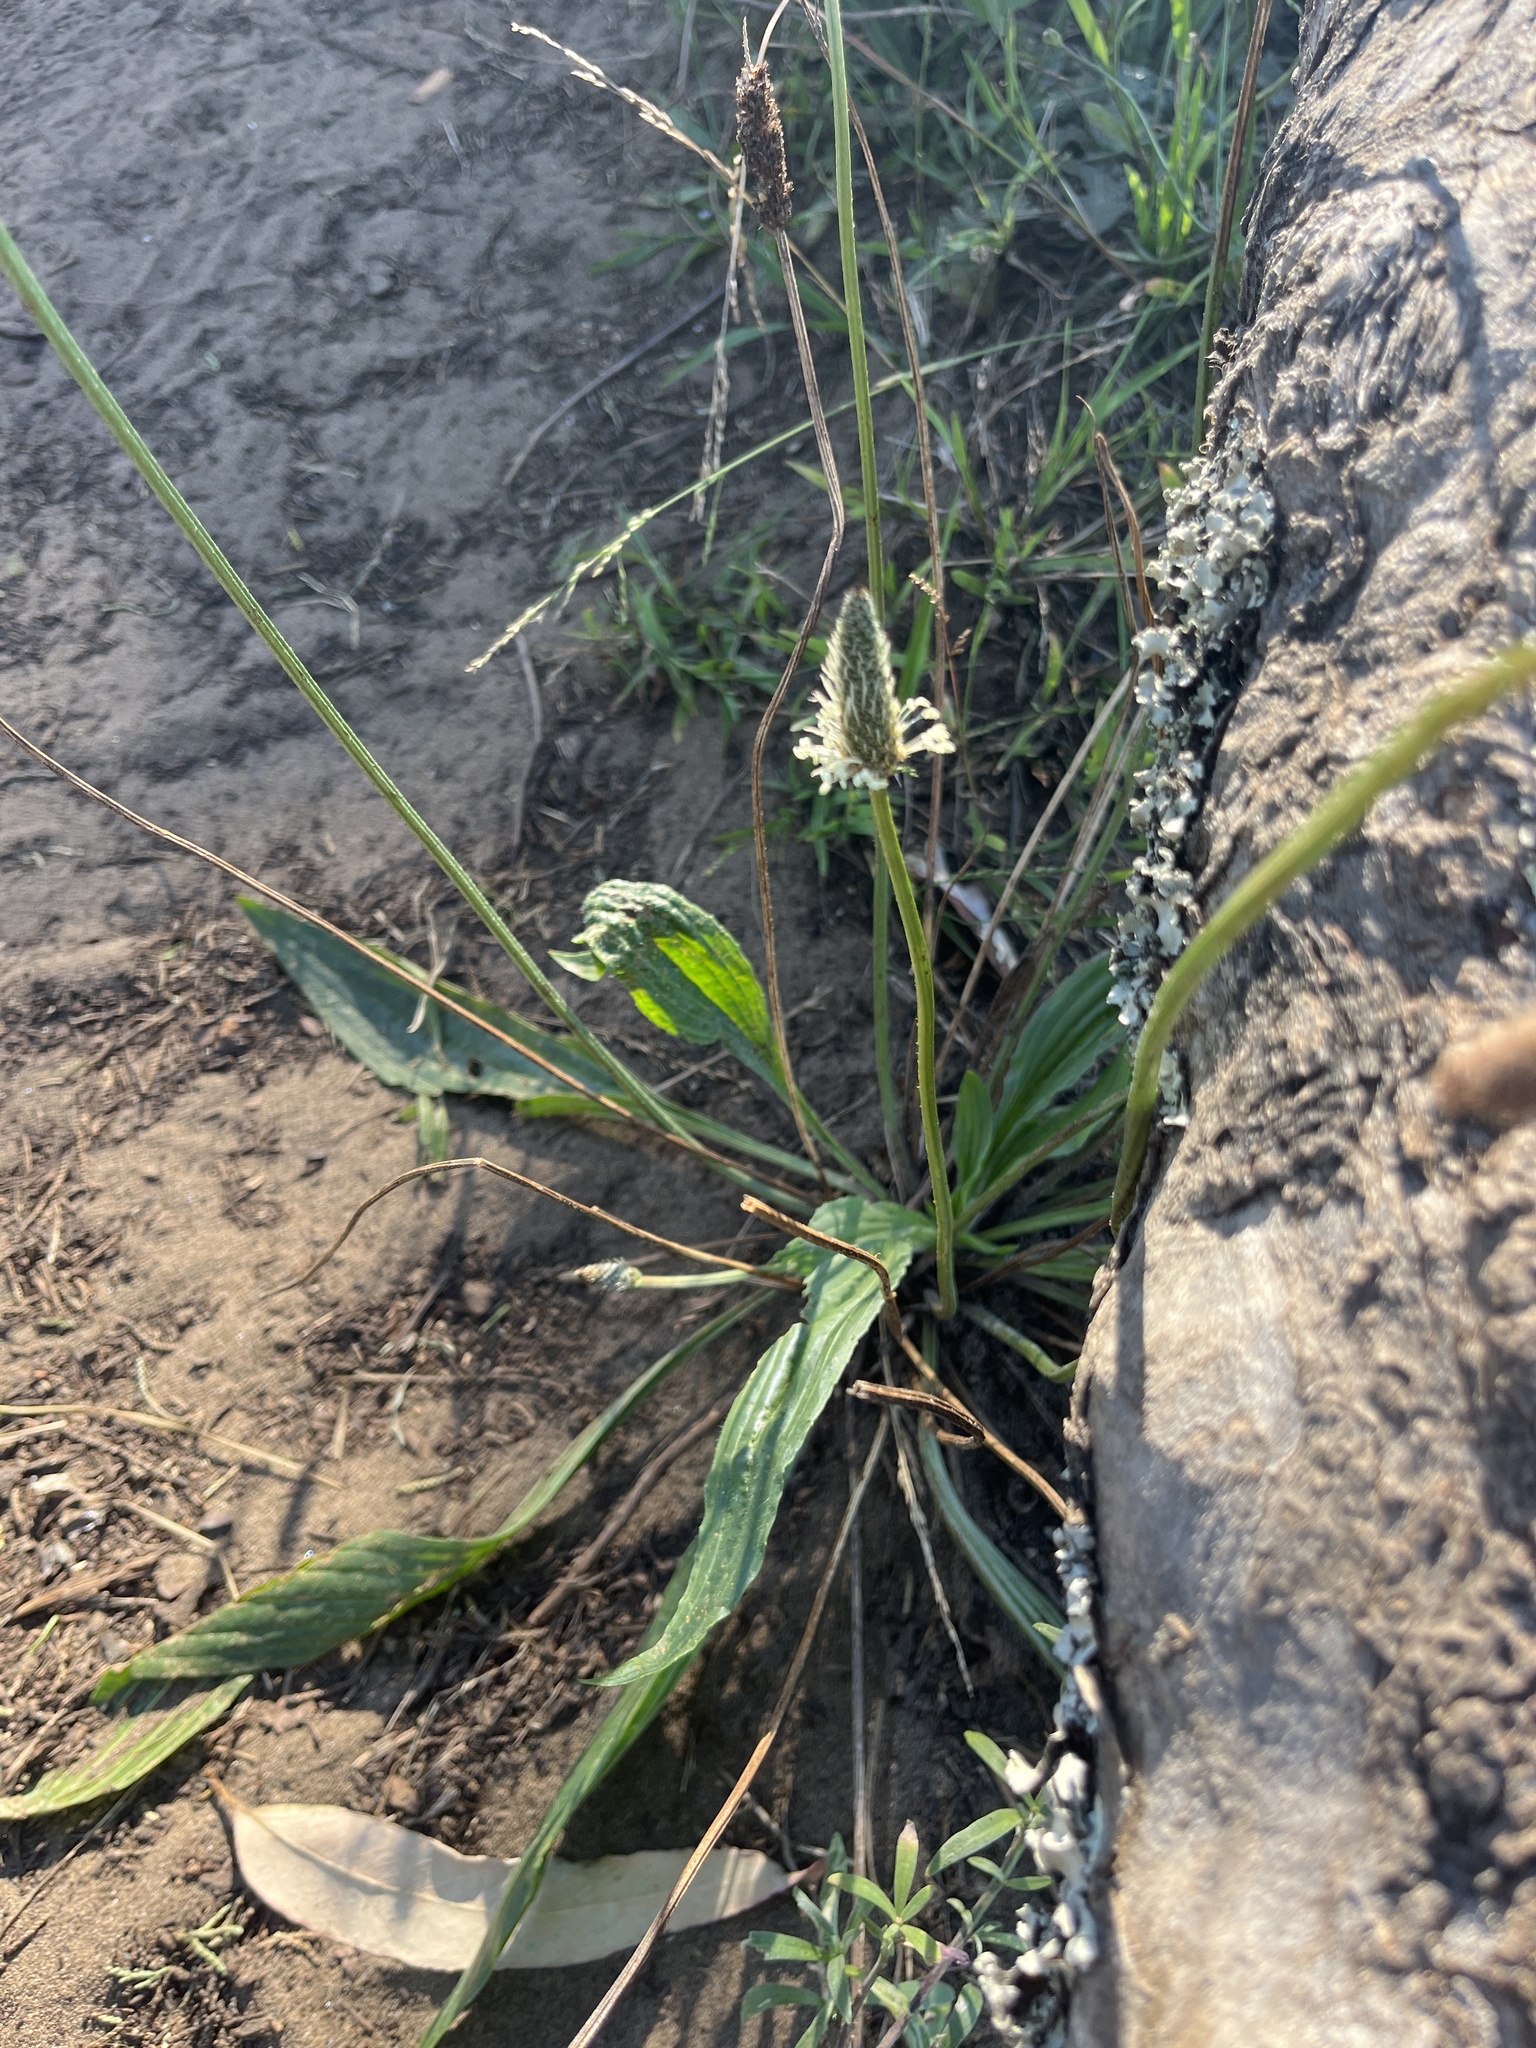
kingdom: Plantae
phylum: Tracheophyta
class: Magnoliopsida
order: Lamiales
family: Plantaginaceae
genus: Plantago
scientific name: Plantago lanceolata
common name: Ribwort plantain
